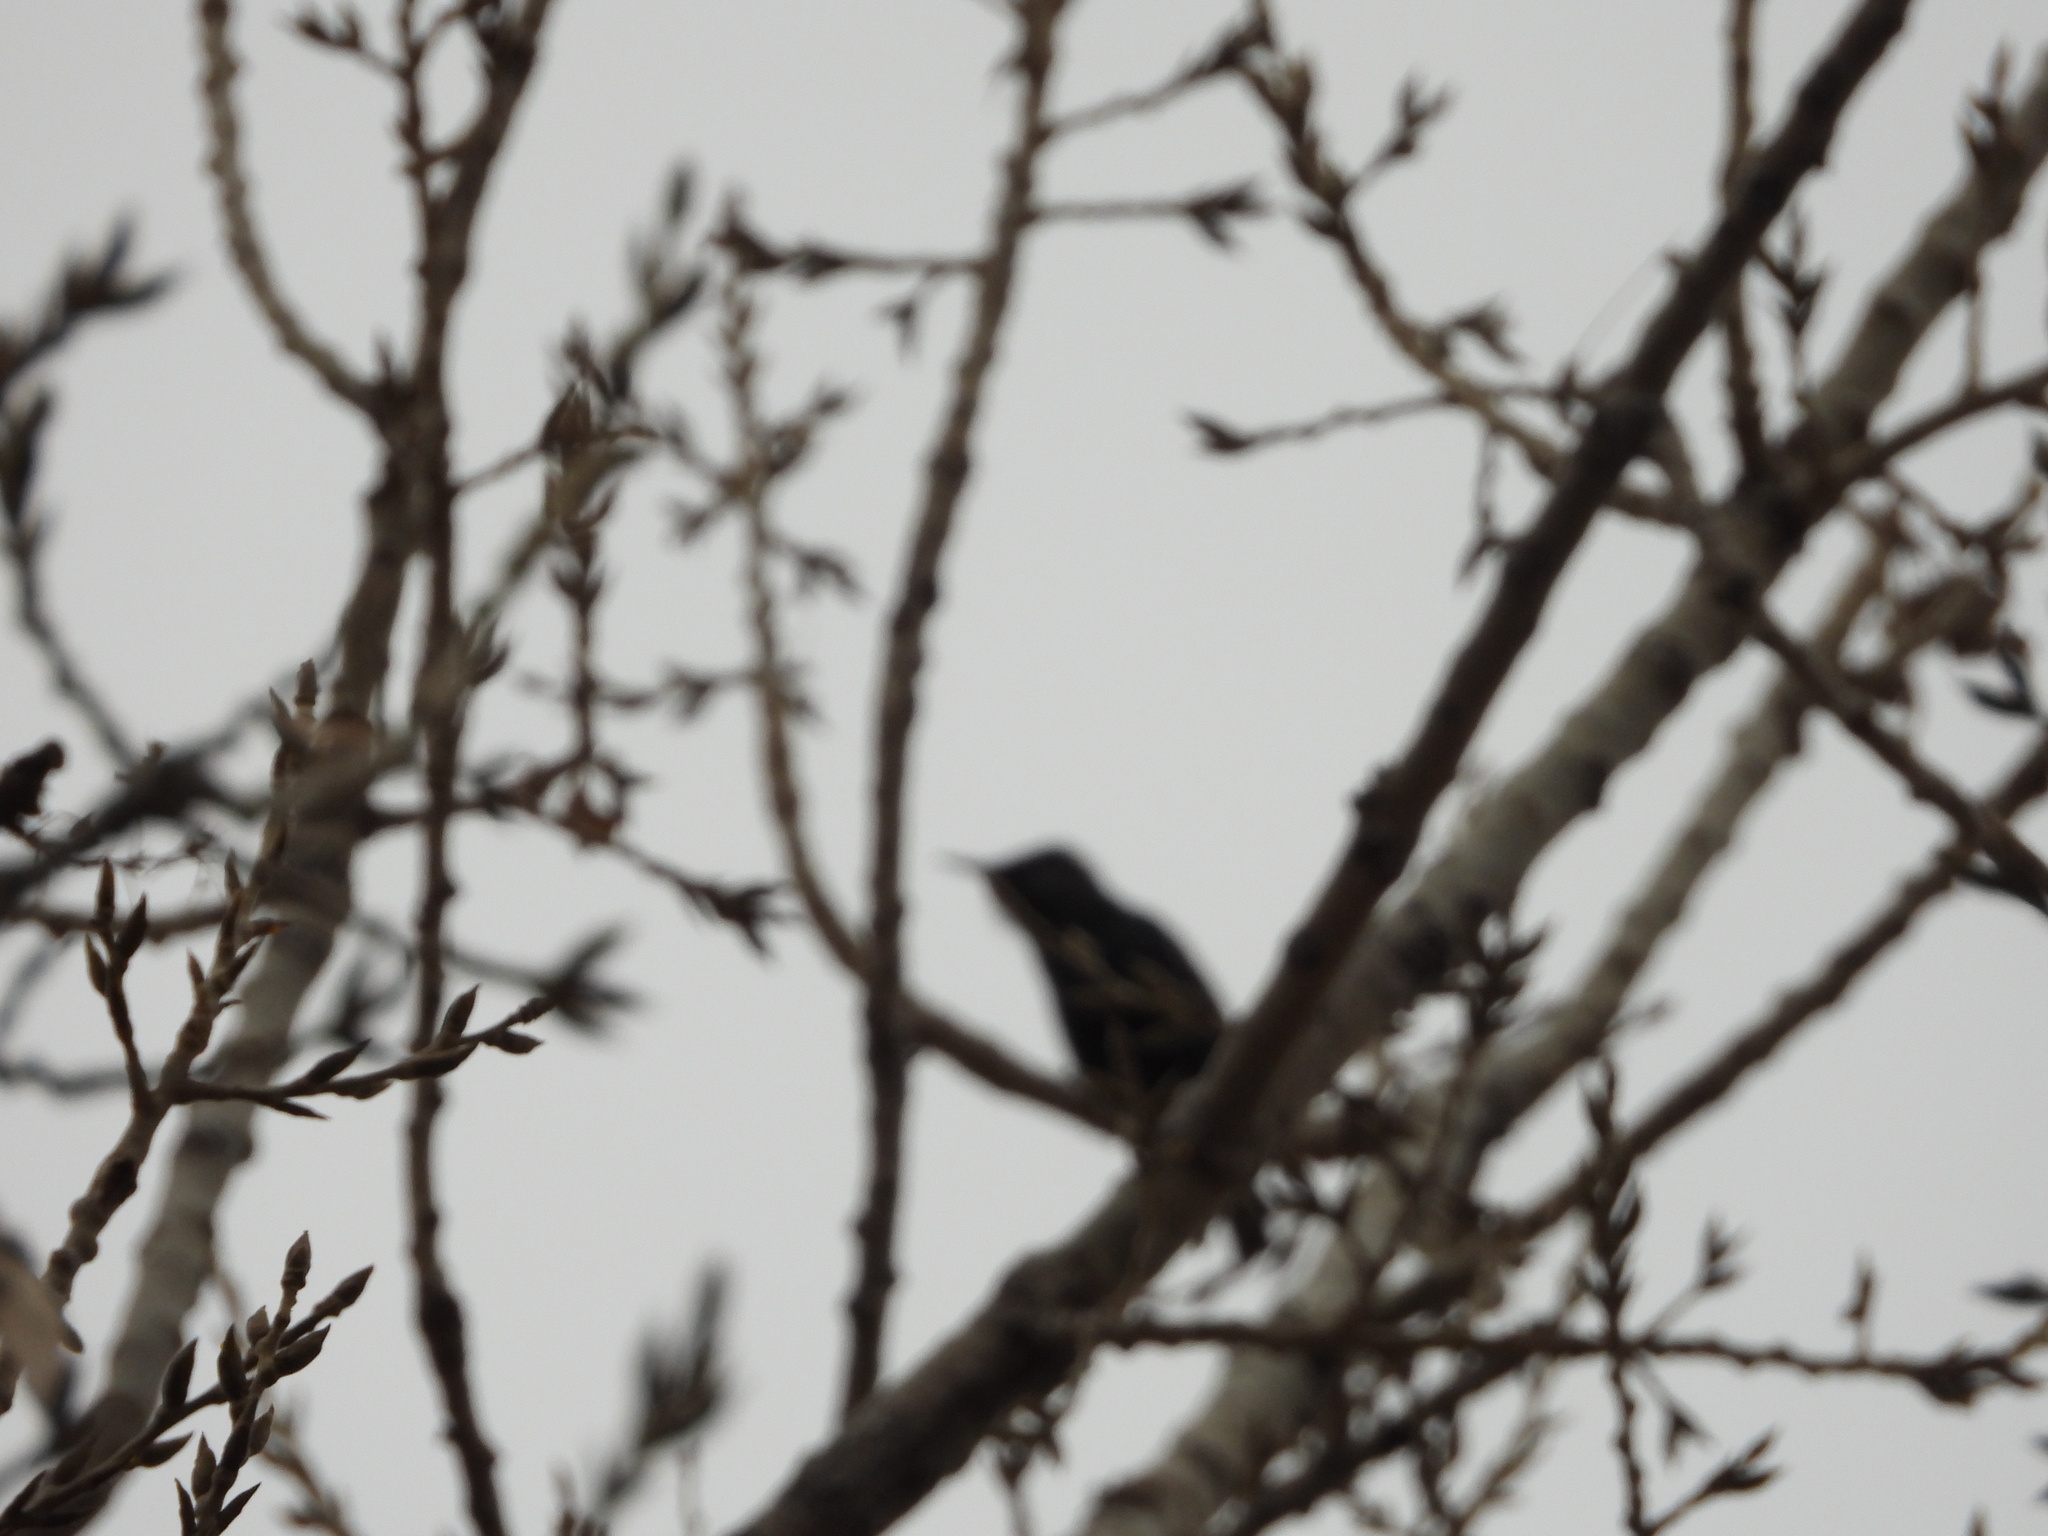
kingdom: Animalia
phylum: Chordata
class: Aves
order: Passeriformes
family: Sturnidae
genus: Sturnus
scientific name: Sturnus vulgaris
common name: Common starling
